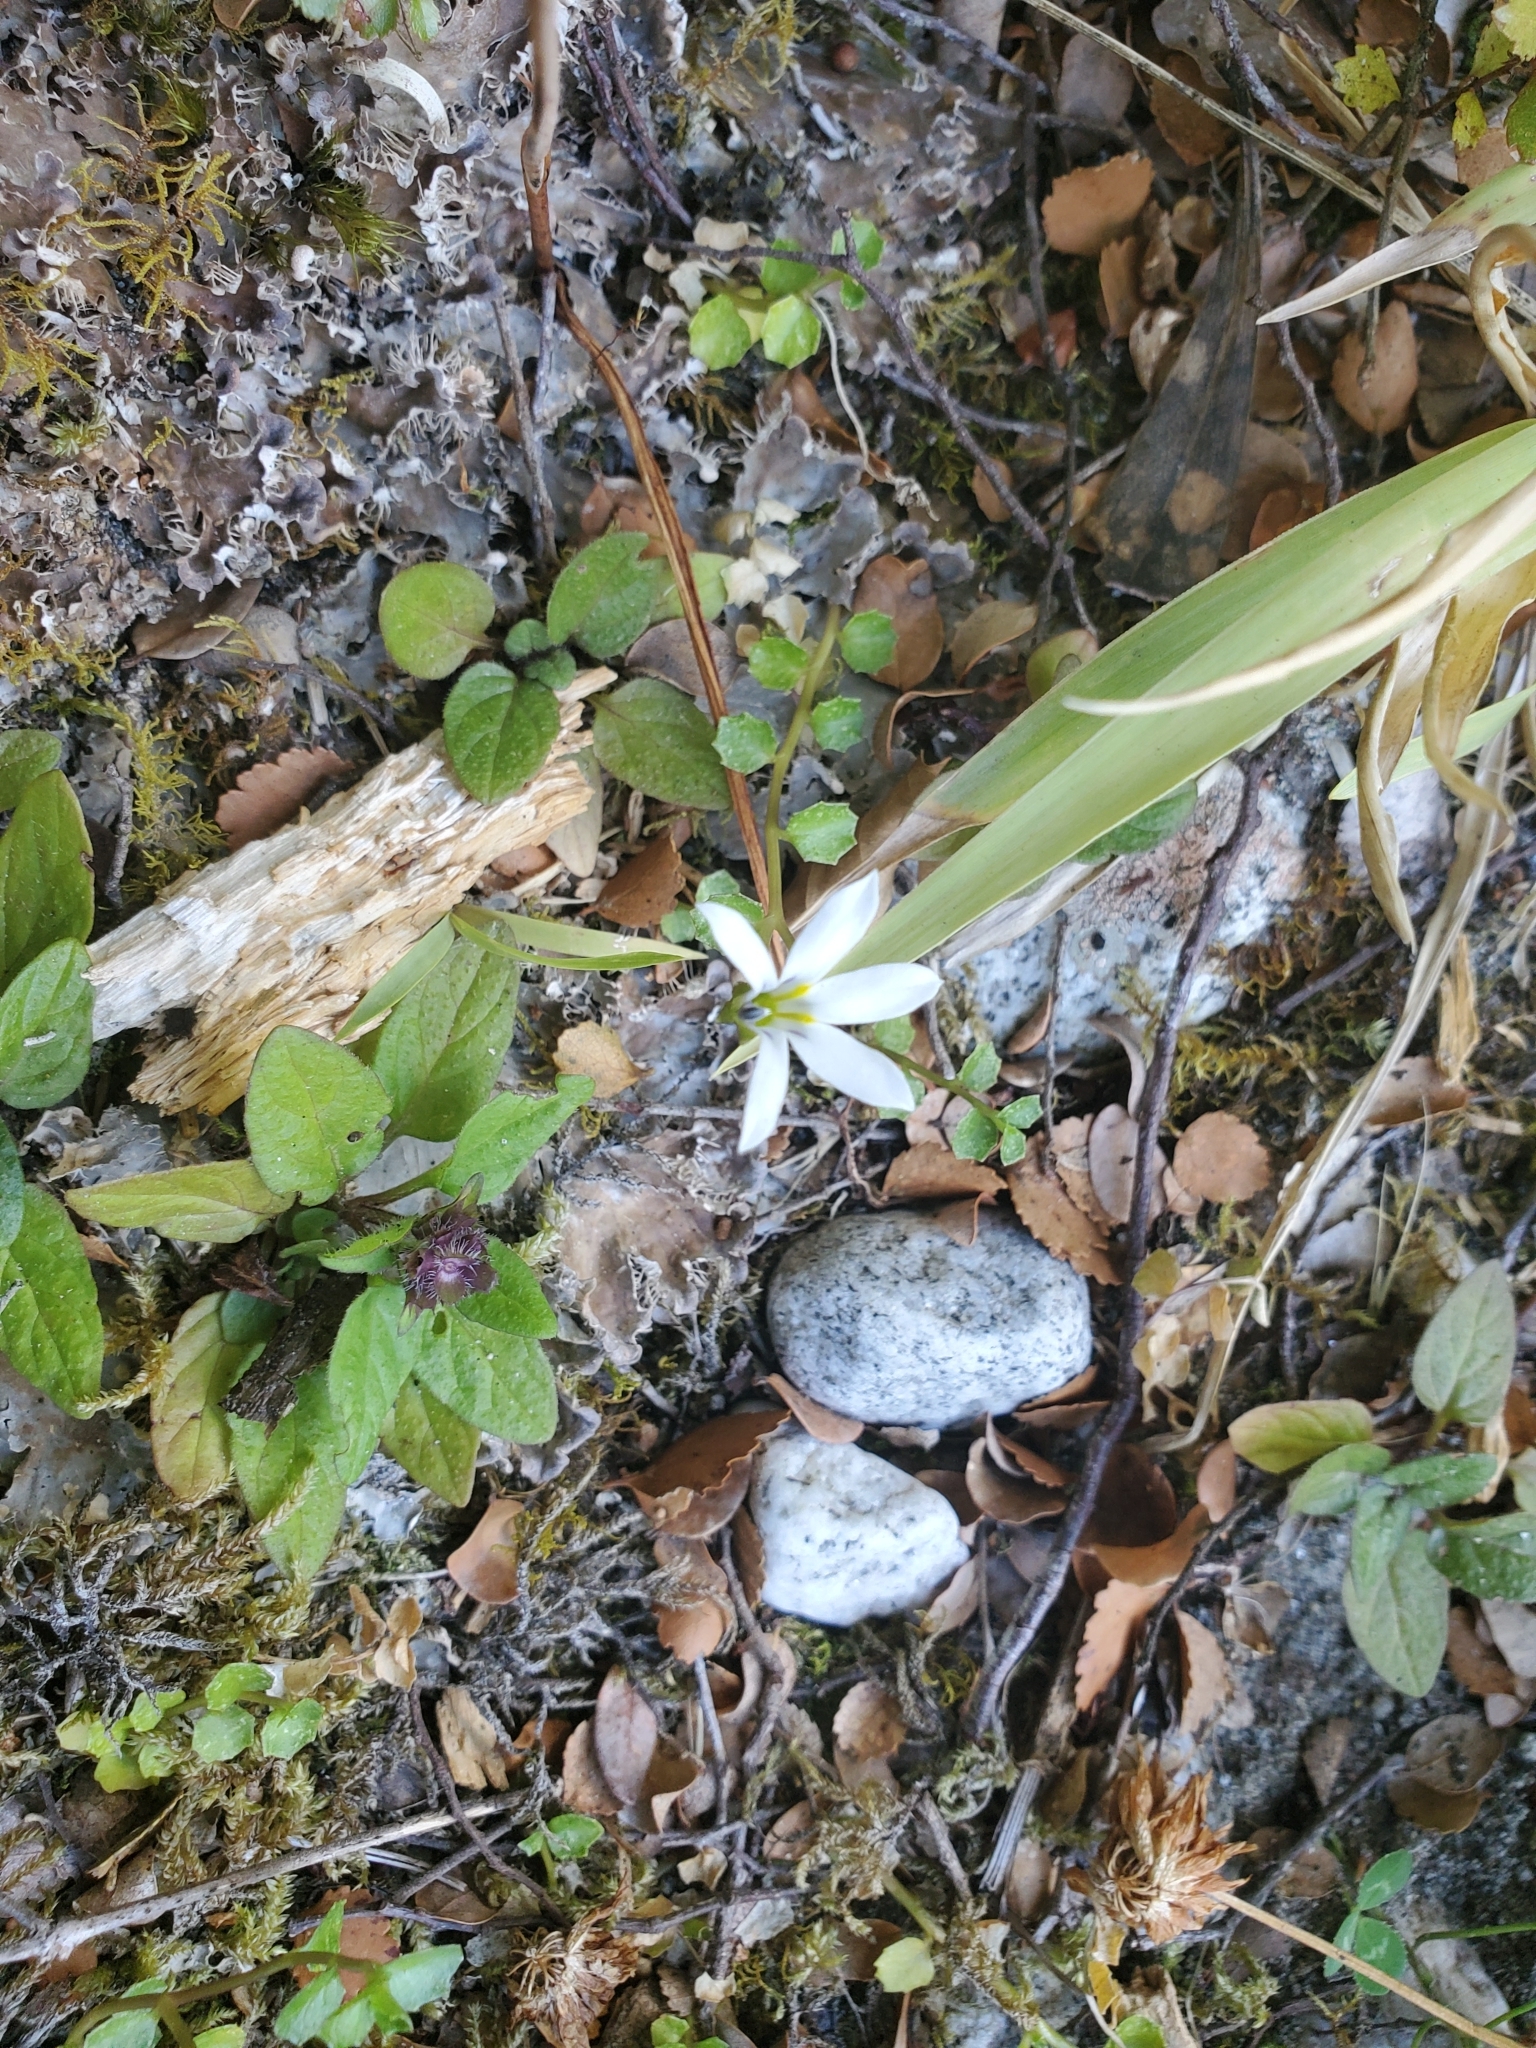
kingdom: Plantae
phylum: Tracheophyta
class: Magnoliopsida
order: Asterales
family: Campanulaceae
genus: Lobelia
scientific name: Lobelia angulata
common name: Lawn lobelia
